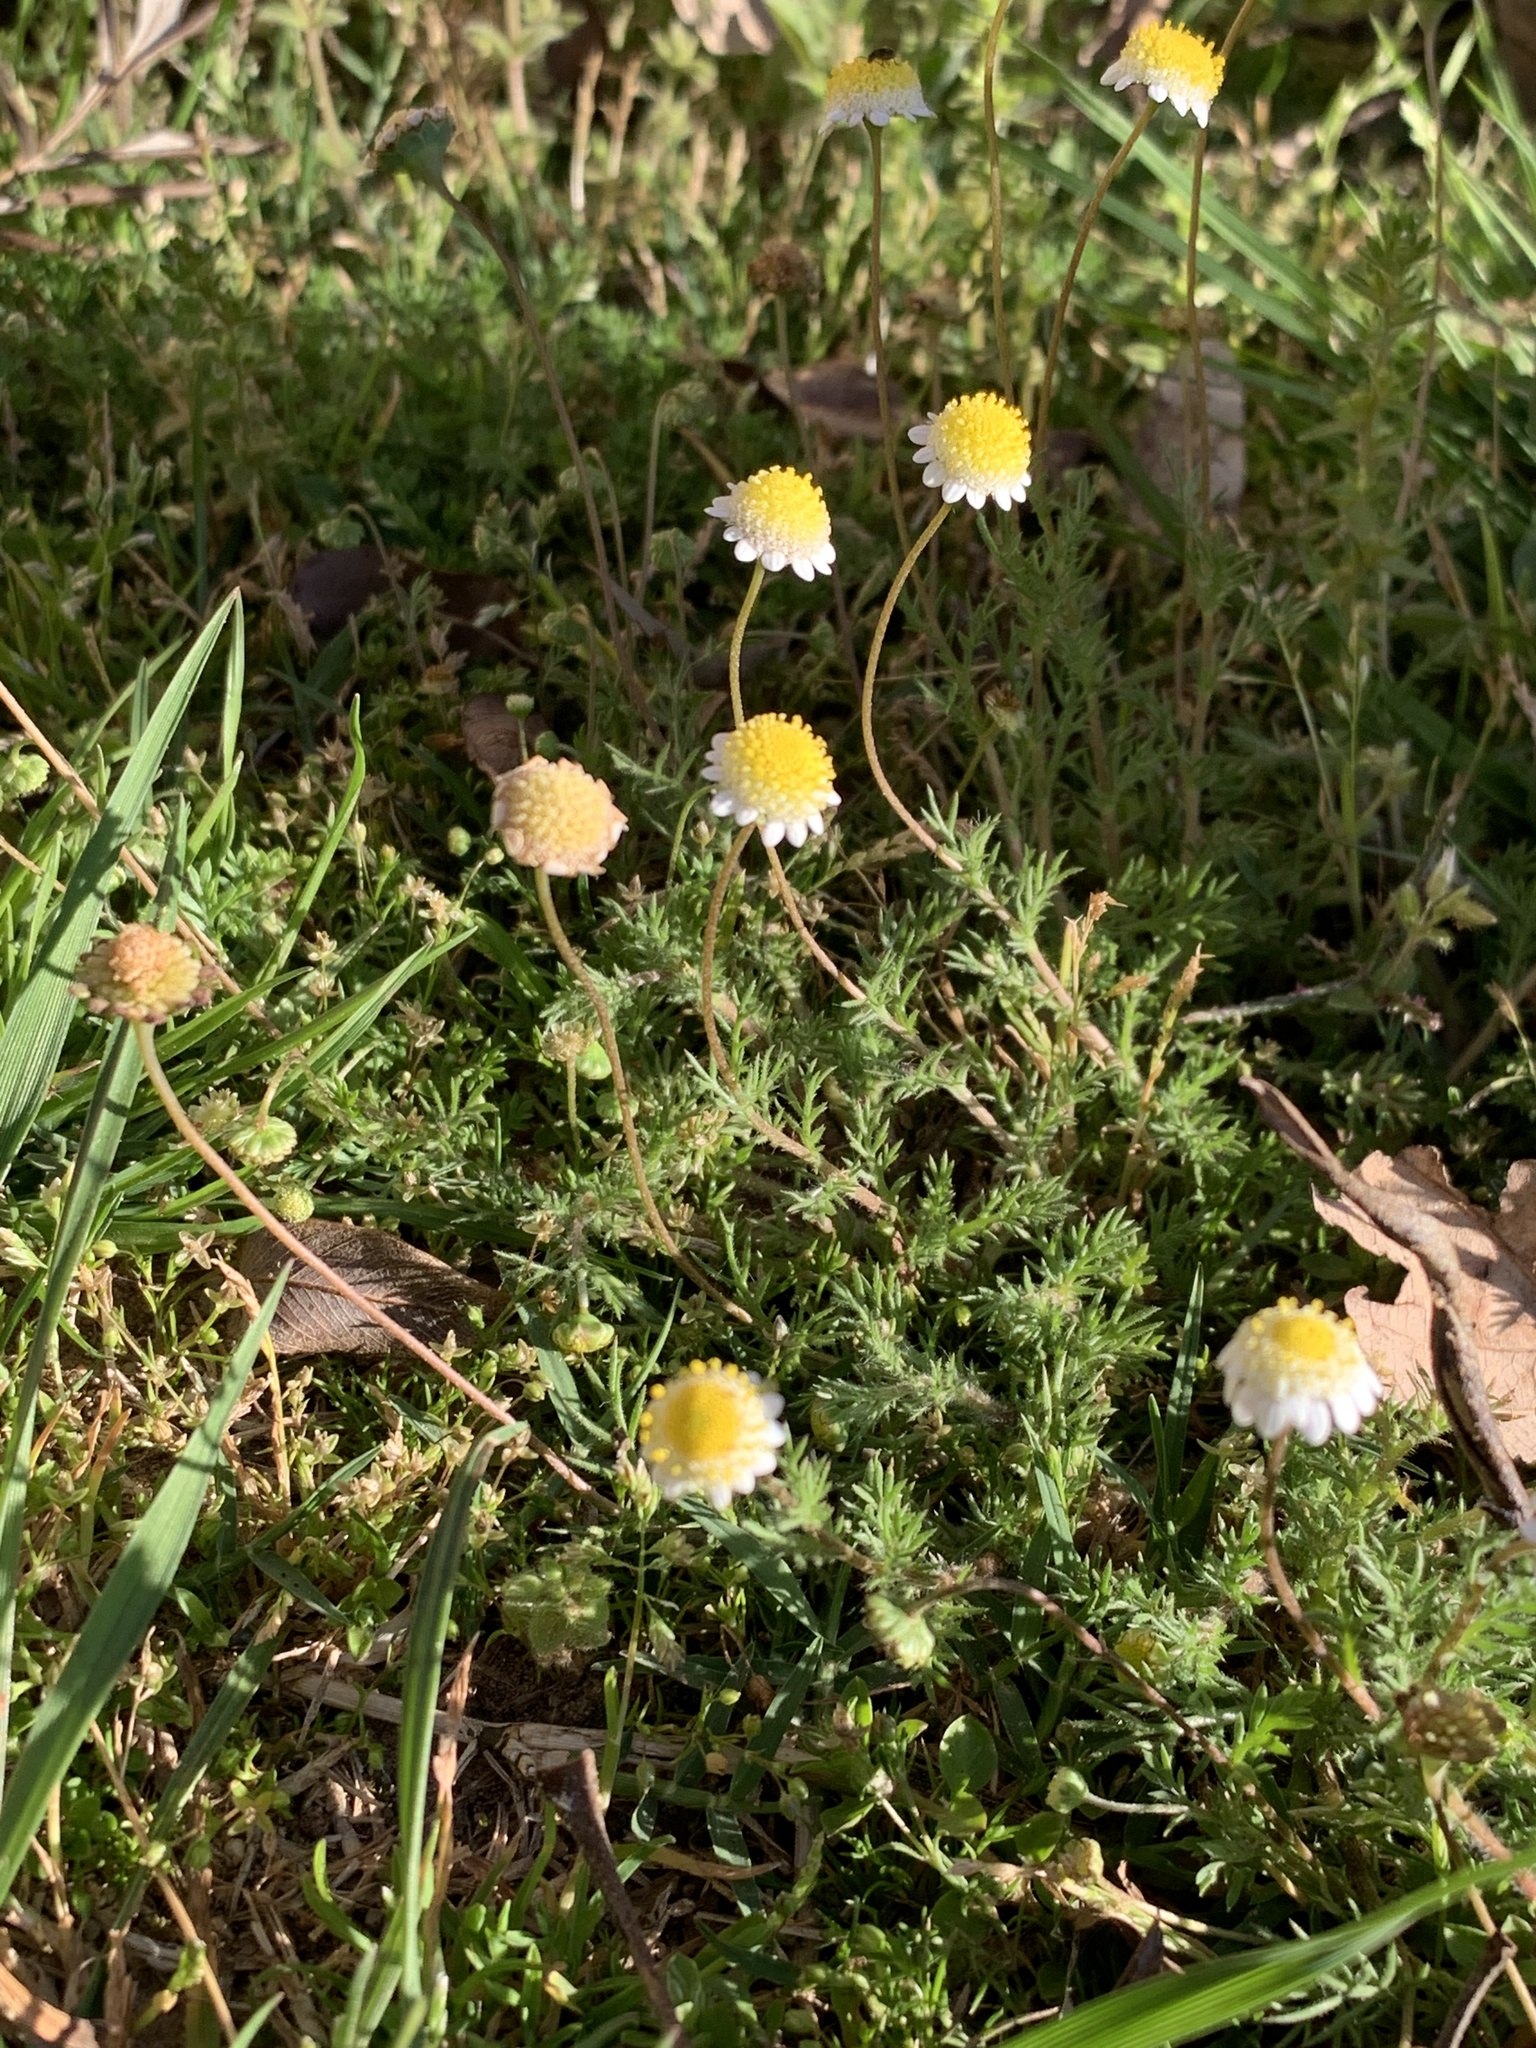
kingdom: Plantae
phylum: Tracheophyta
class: Magnoliopsida
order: Asterales
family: Asteraceae
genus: Cotula
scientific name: Cotula turbinata
